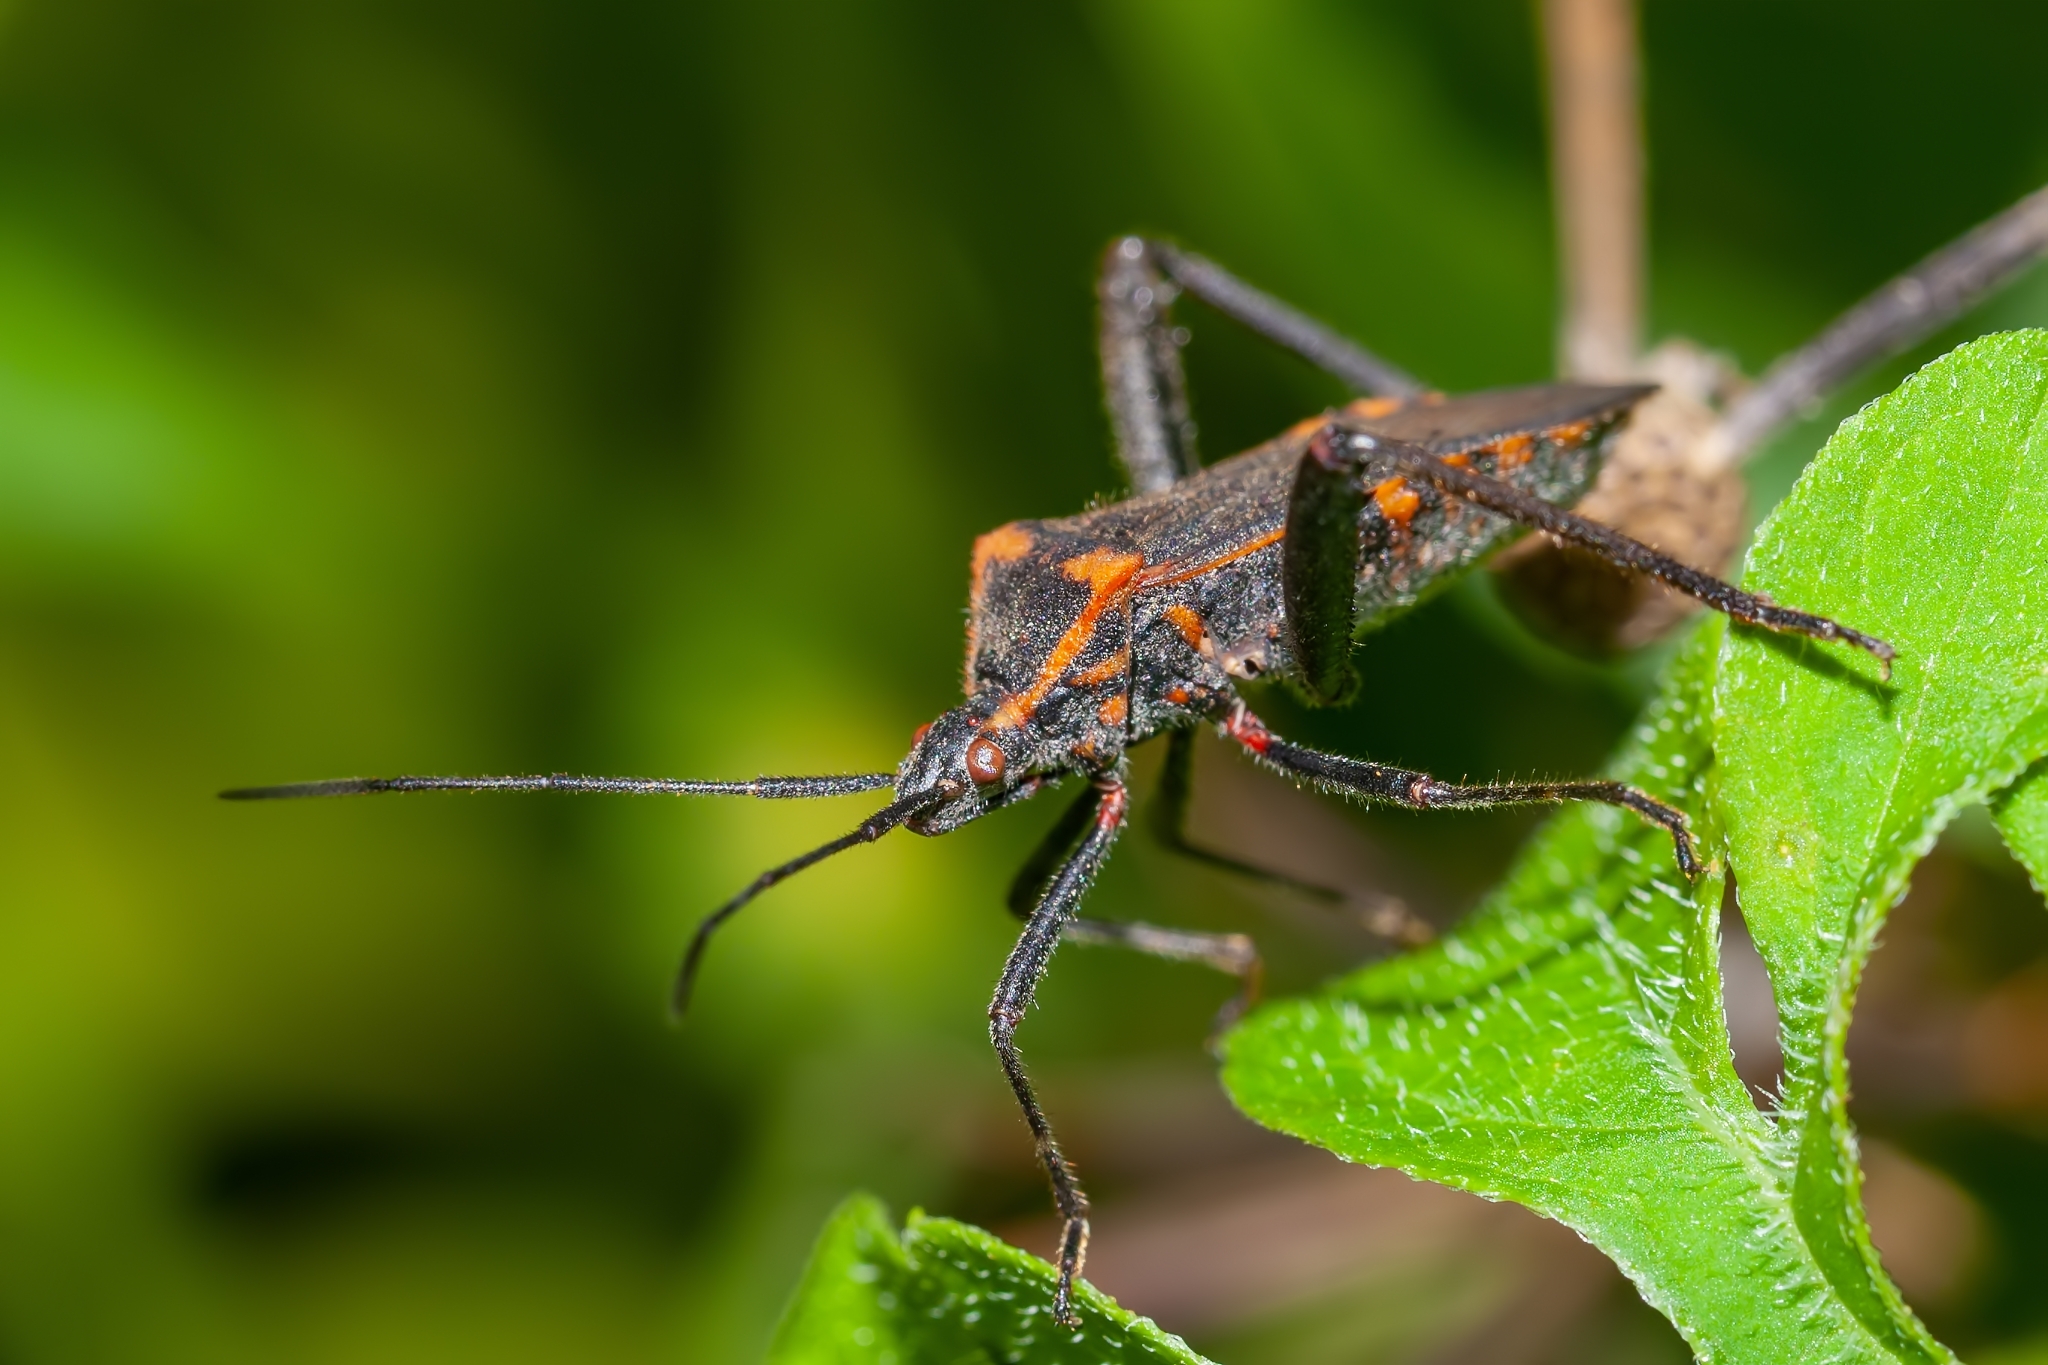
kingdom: Animalia
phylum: Arthropoda
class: Insecta
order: Hemiptera
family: Coreidae
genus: Phthiacnemia
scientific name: Phthiacnemia picta
